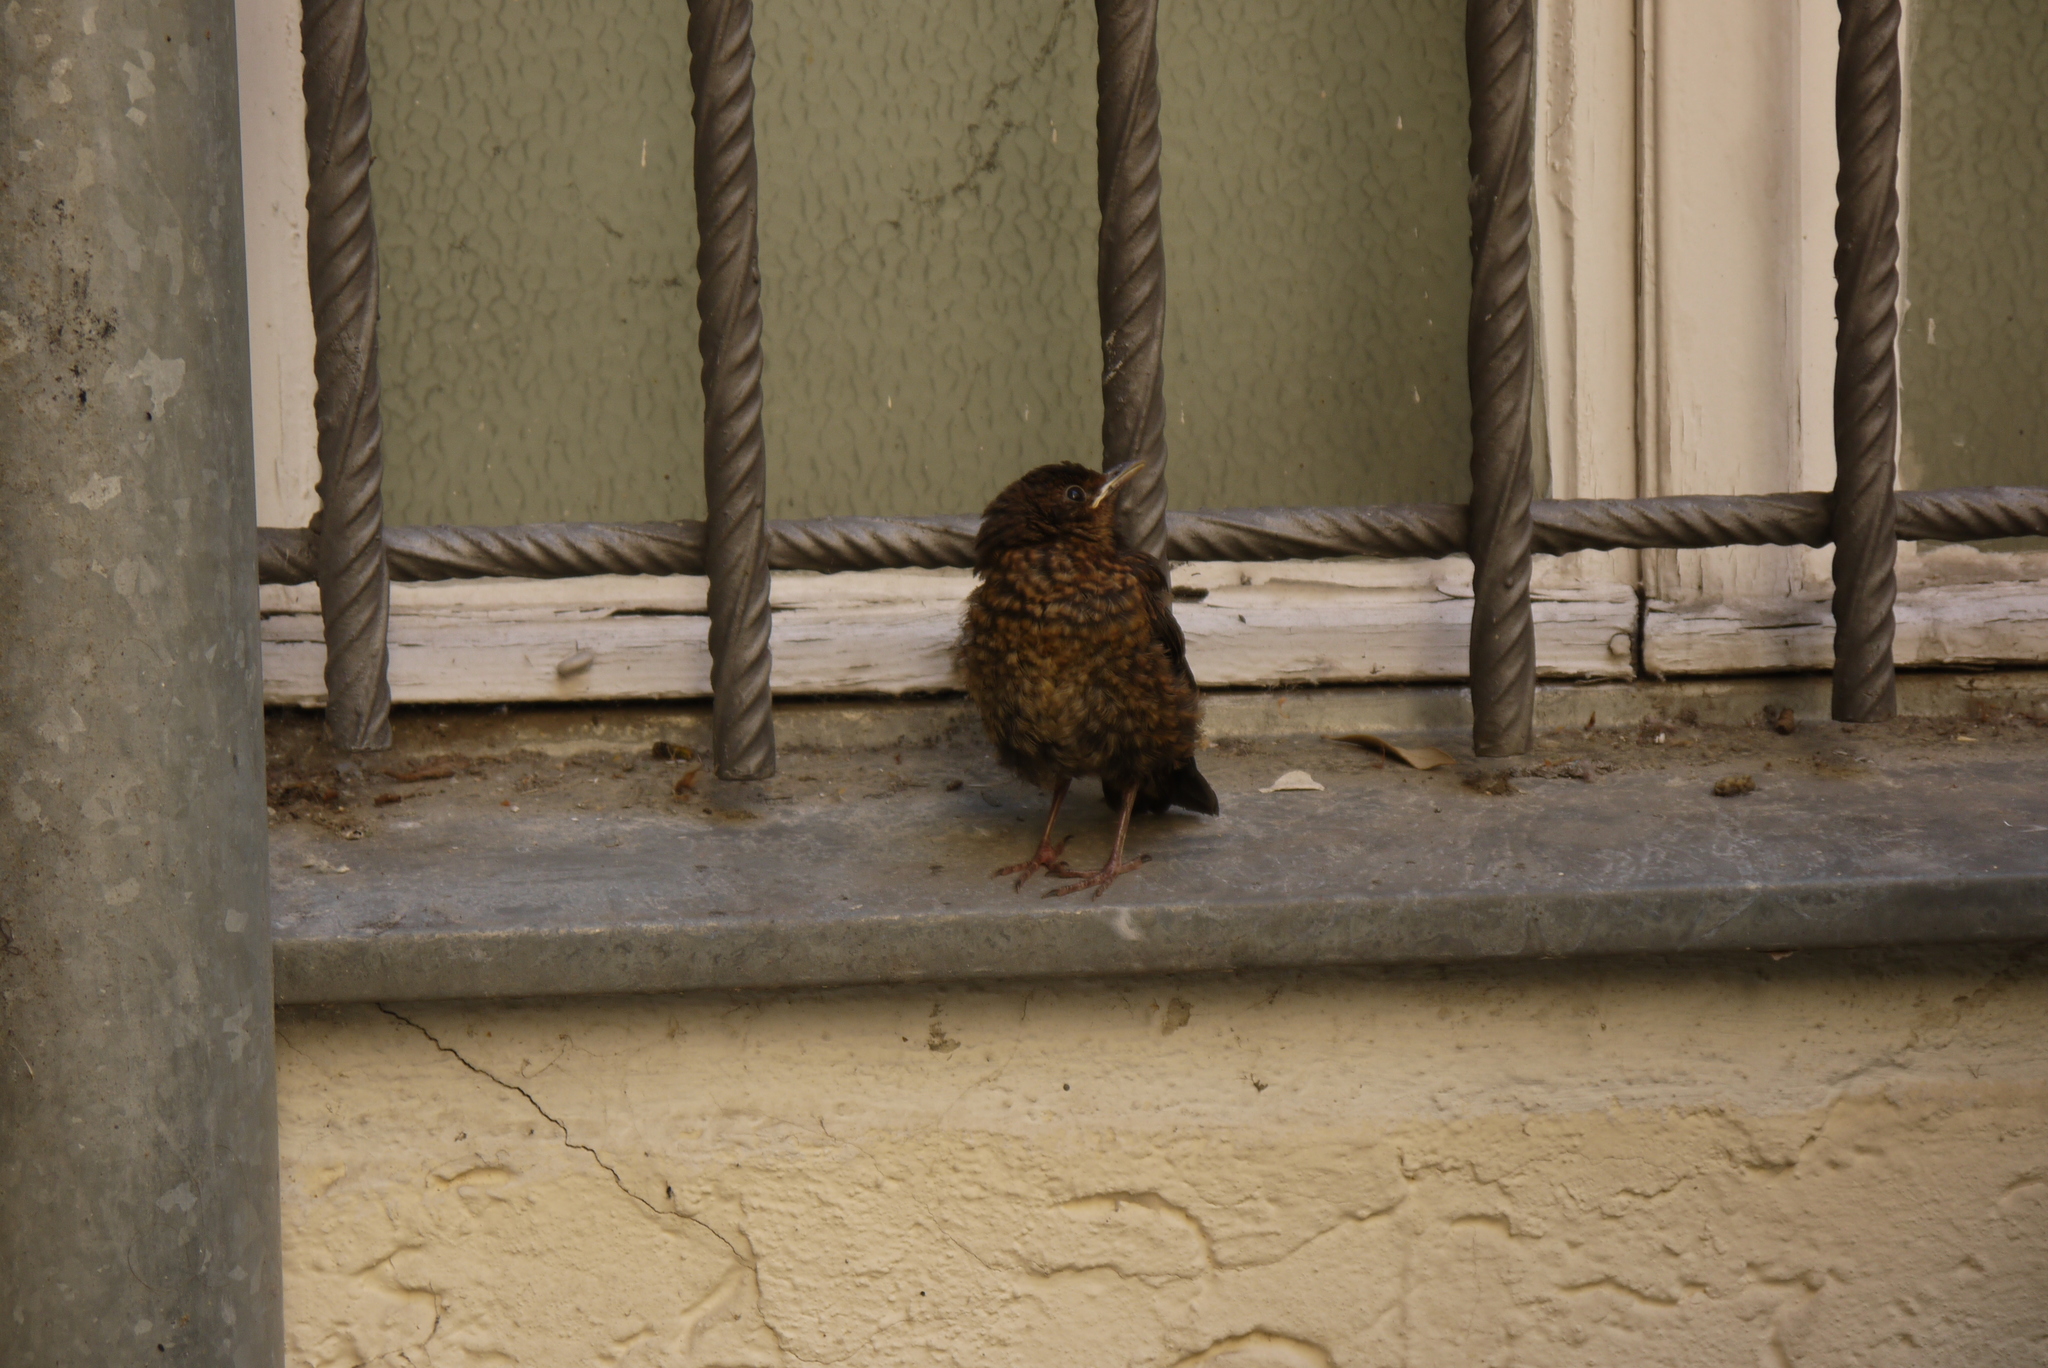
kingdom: Animalia
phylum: Chordata
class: Aves
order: Passeriformes
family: Turdidae
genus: Turdus
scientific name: Turdus merula
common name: Common blackbird
